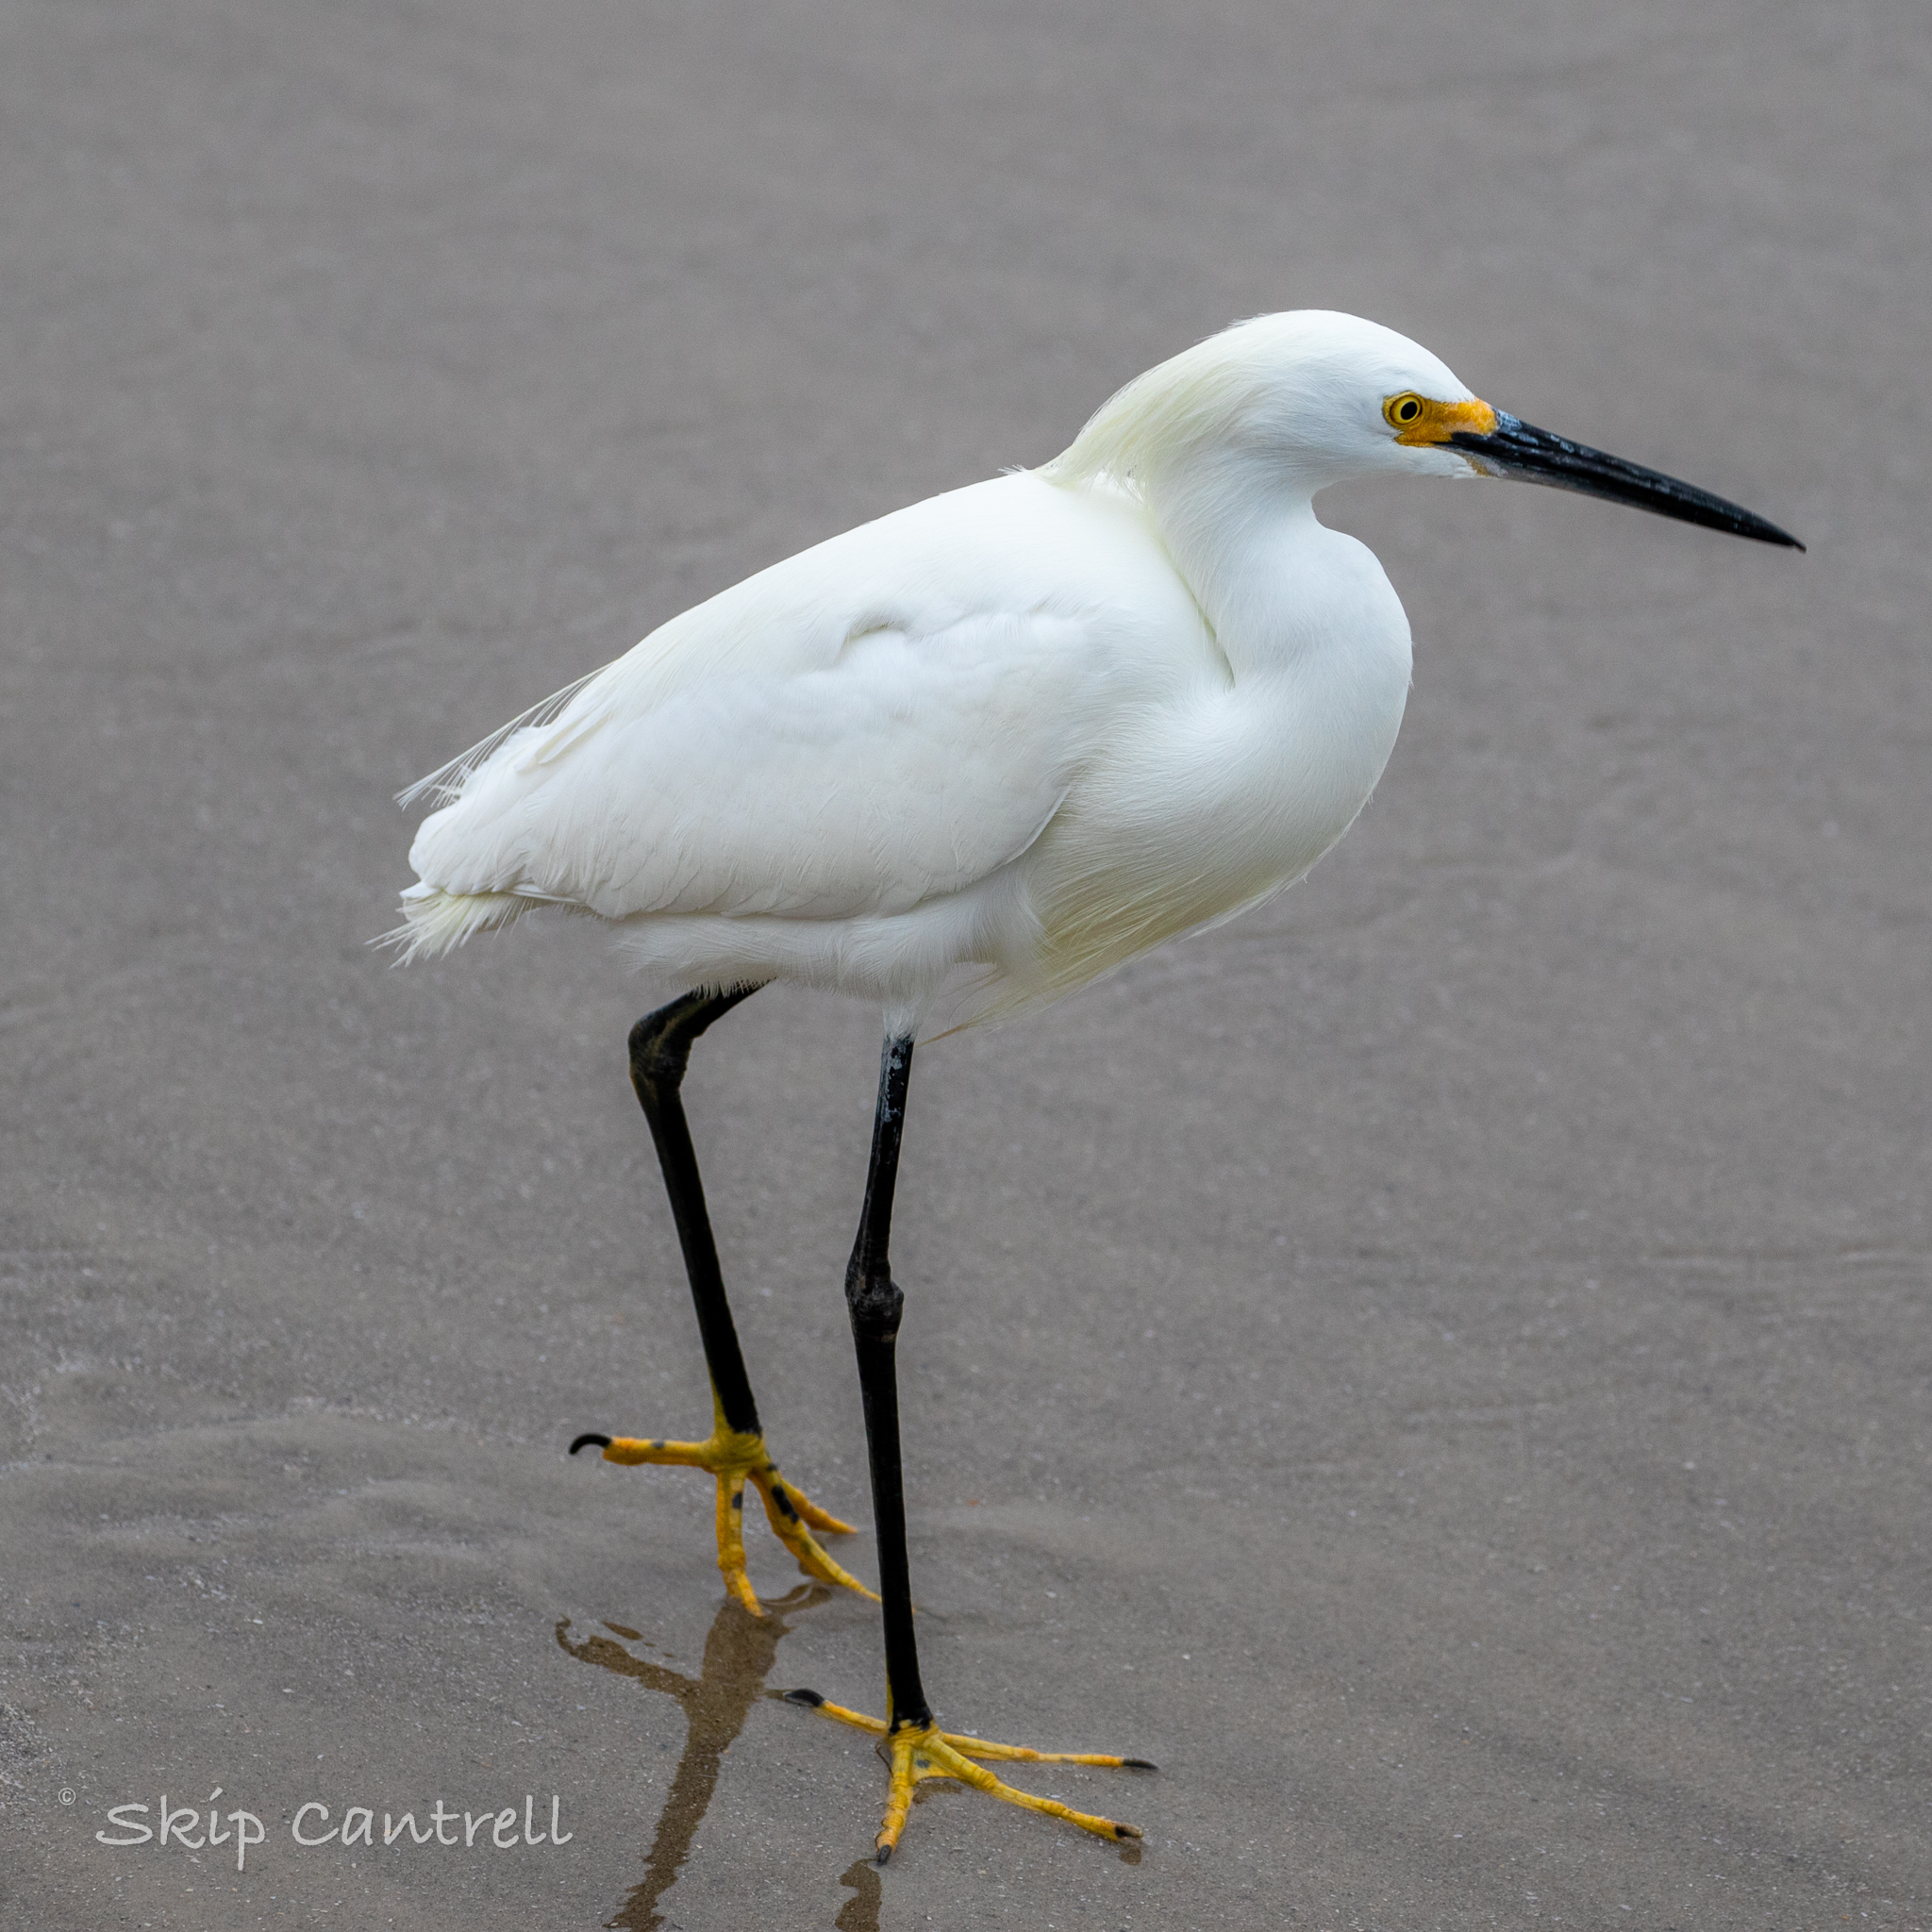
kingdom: Animalia
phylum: Chordata
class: Aves
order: Pelecaniformes
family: Ardeidae
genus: Egretta
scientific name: Egretta thula
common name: Snowy egret
